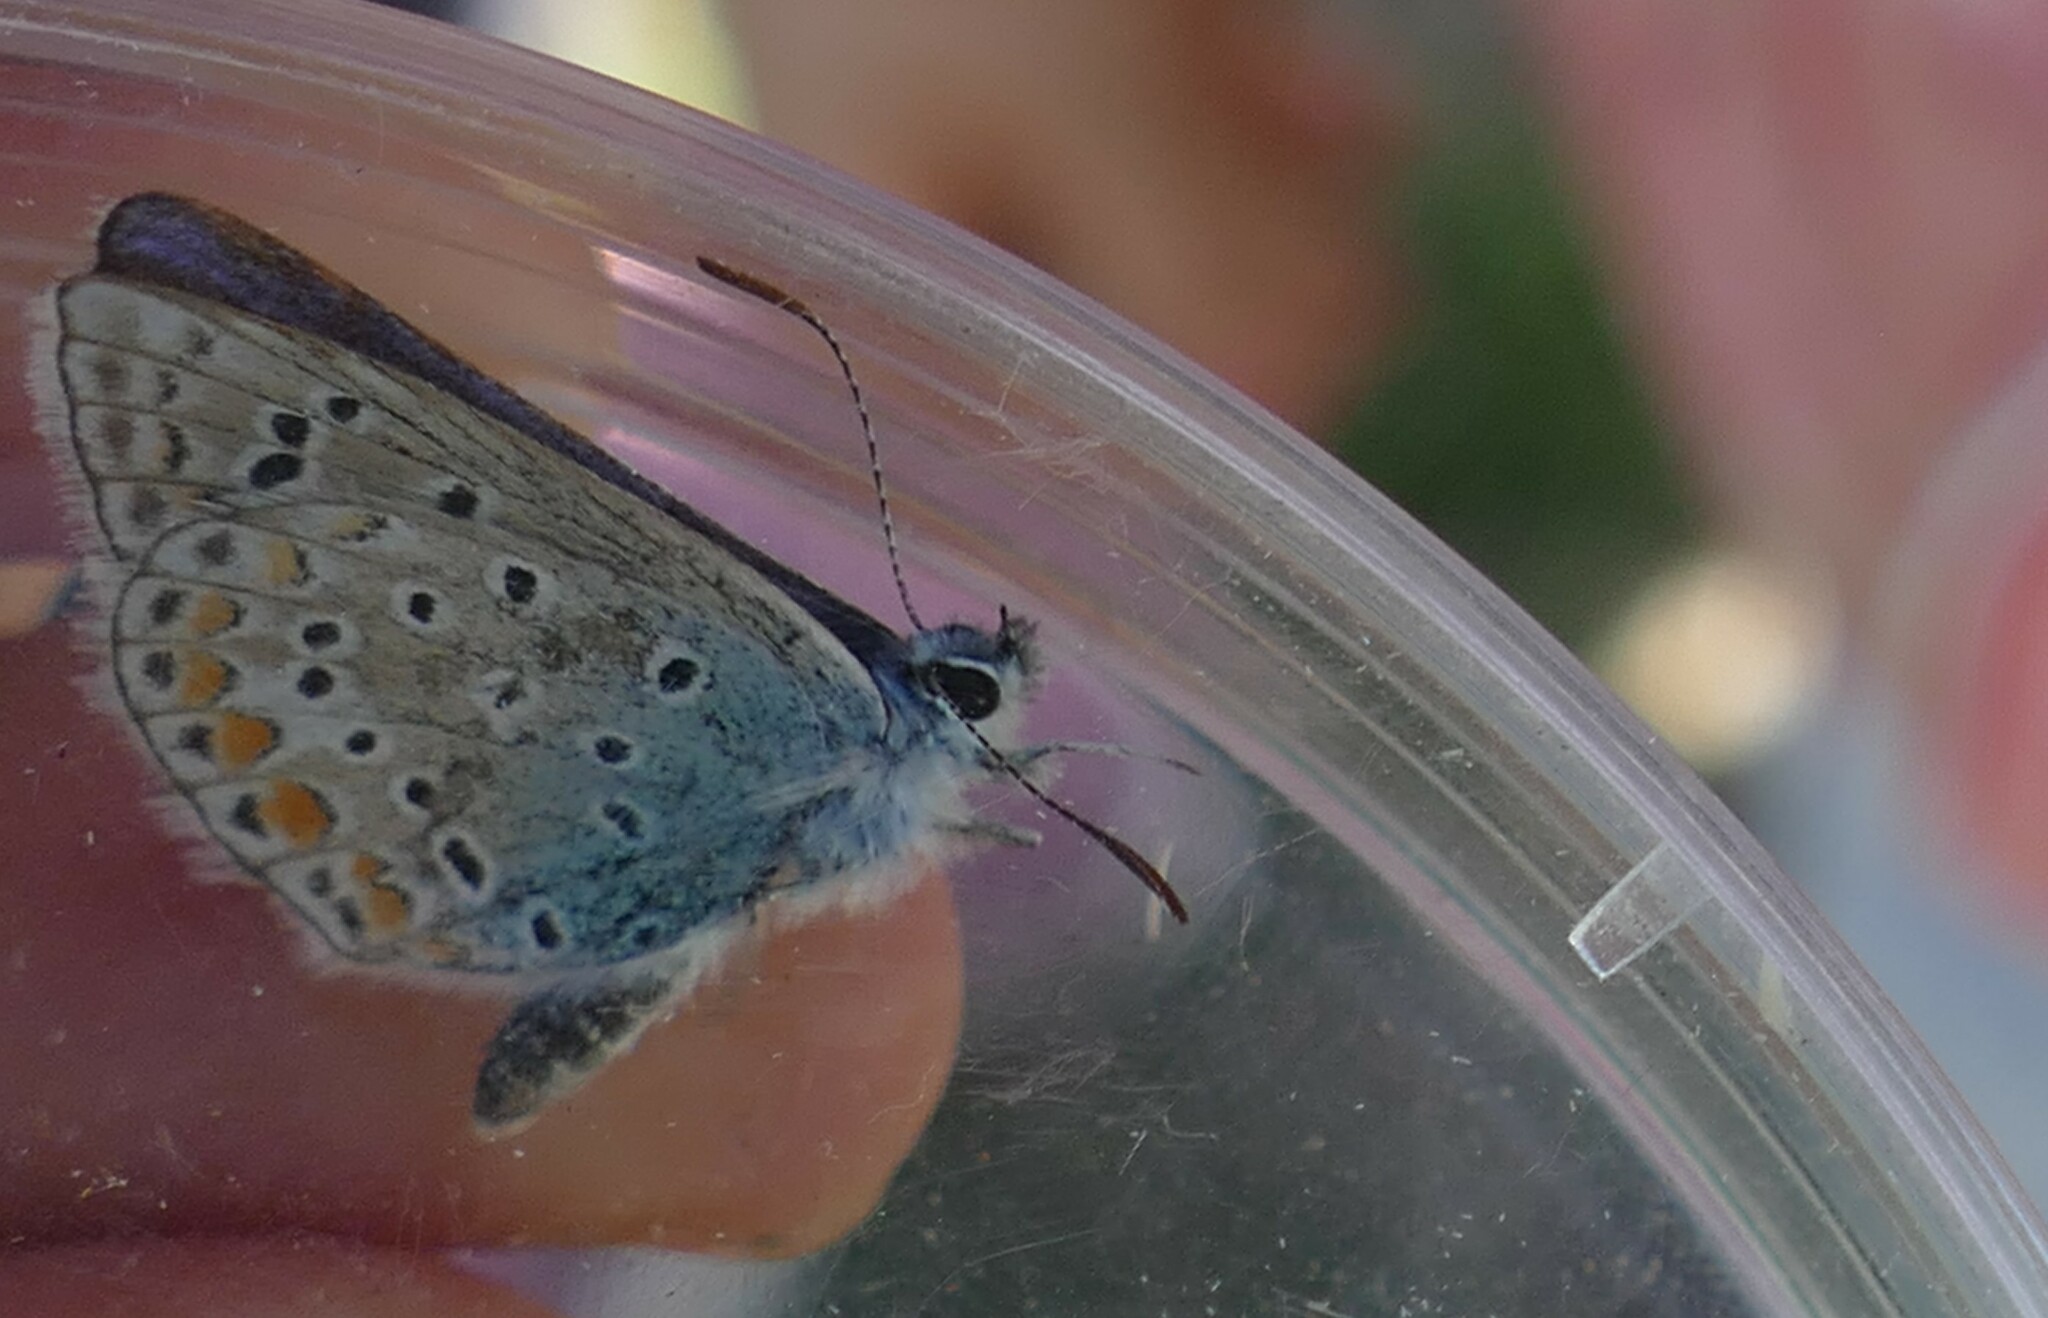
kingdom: Animalia
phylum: Arthropoda
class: Insecta
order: Lepidoptera
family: Lycaenidae
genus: Polyommatus
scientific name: Polyommatus icarus
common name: Common blue
